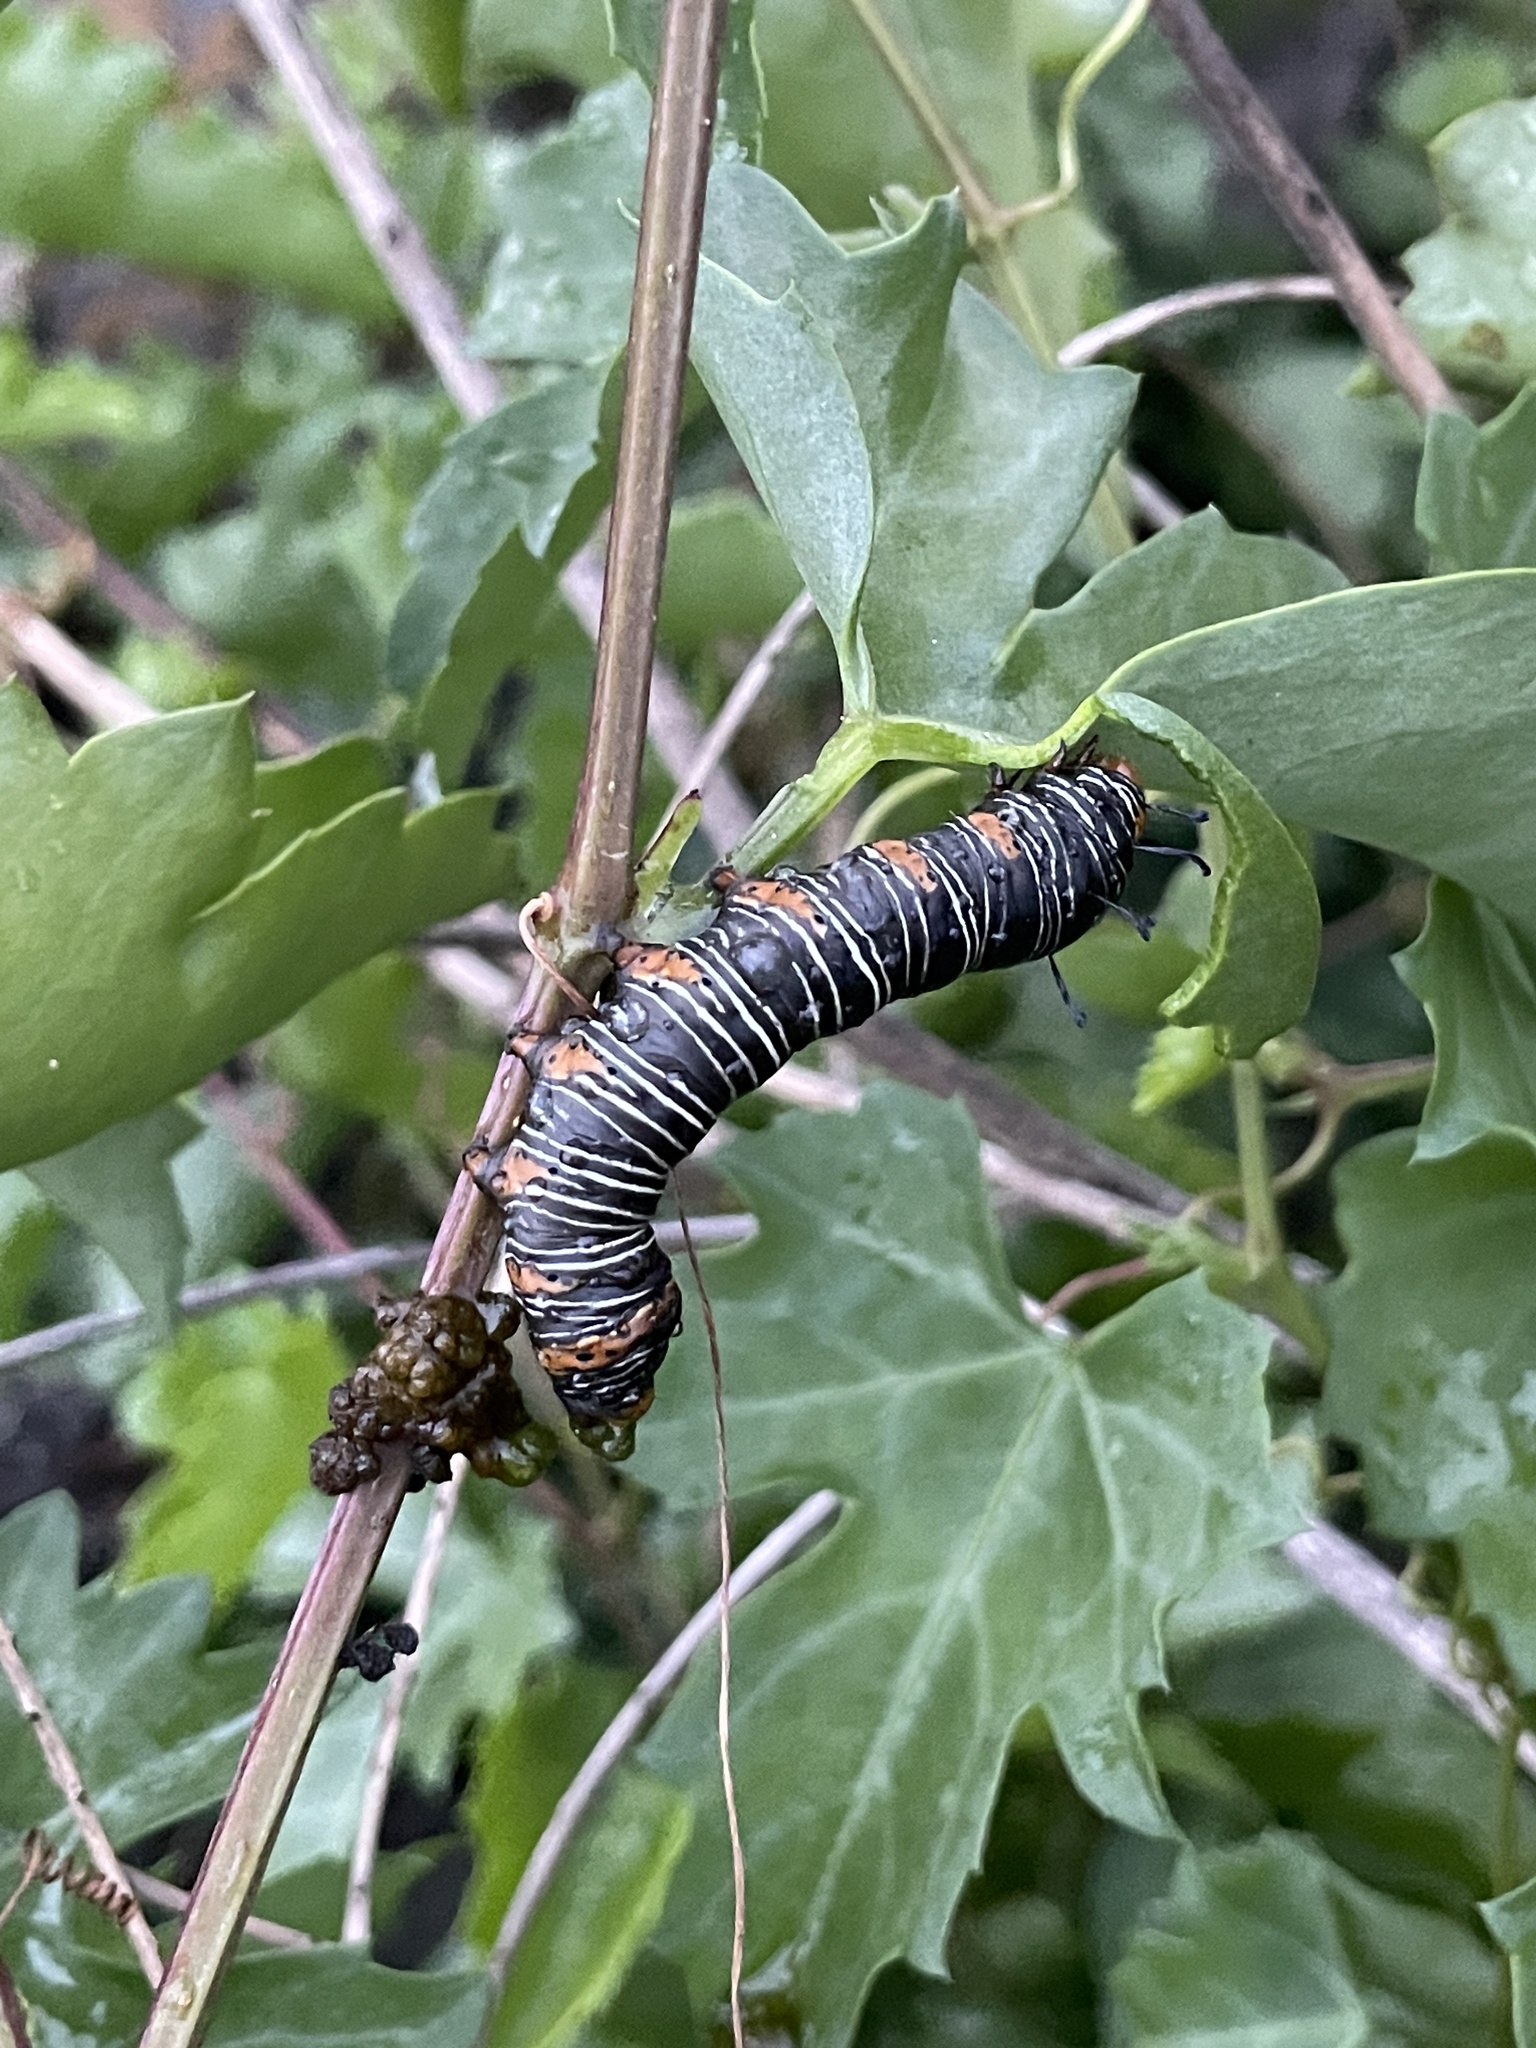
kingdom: Animalia
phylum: Arthropoda
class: Insecta
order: Lepidoptera
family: Noctuidae
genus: Xerociris
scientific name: Xerociris wilsonii
